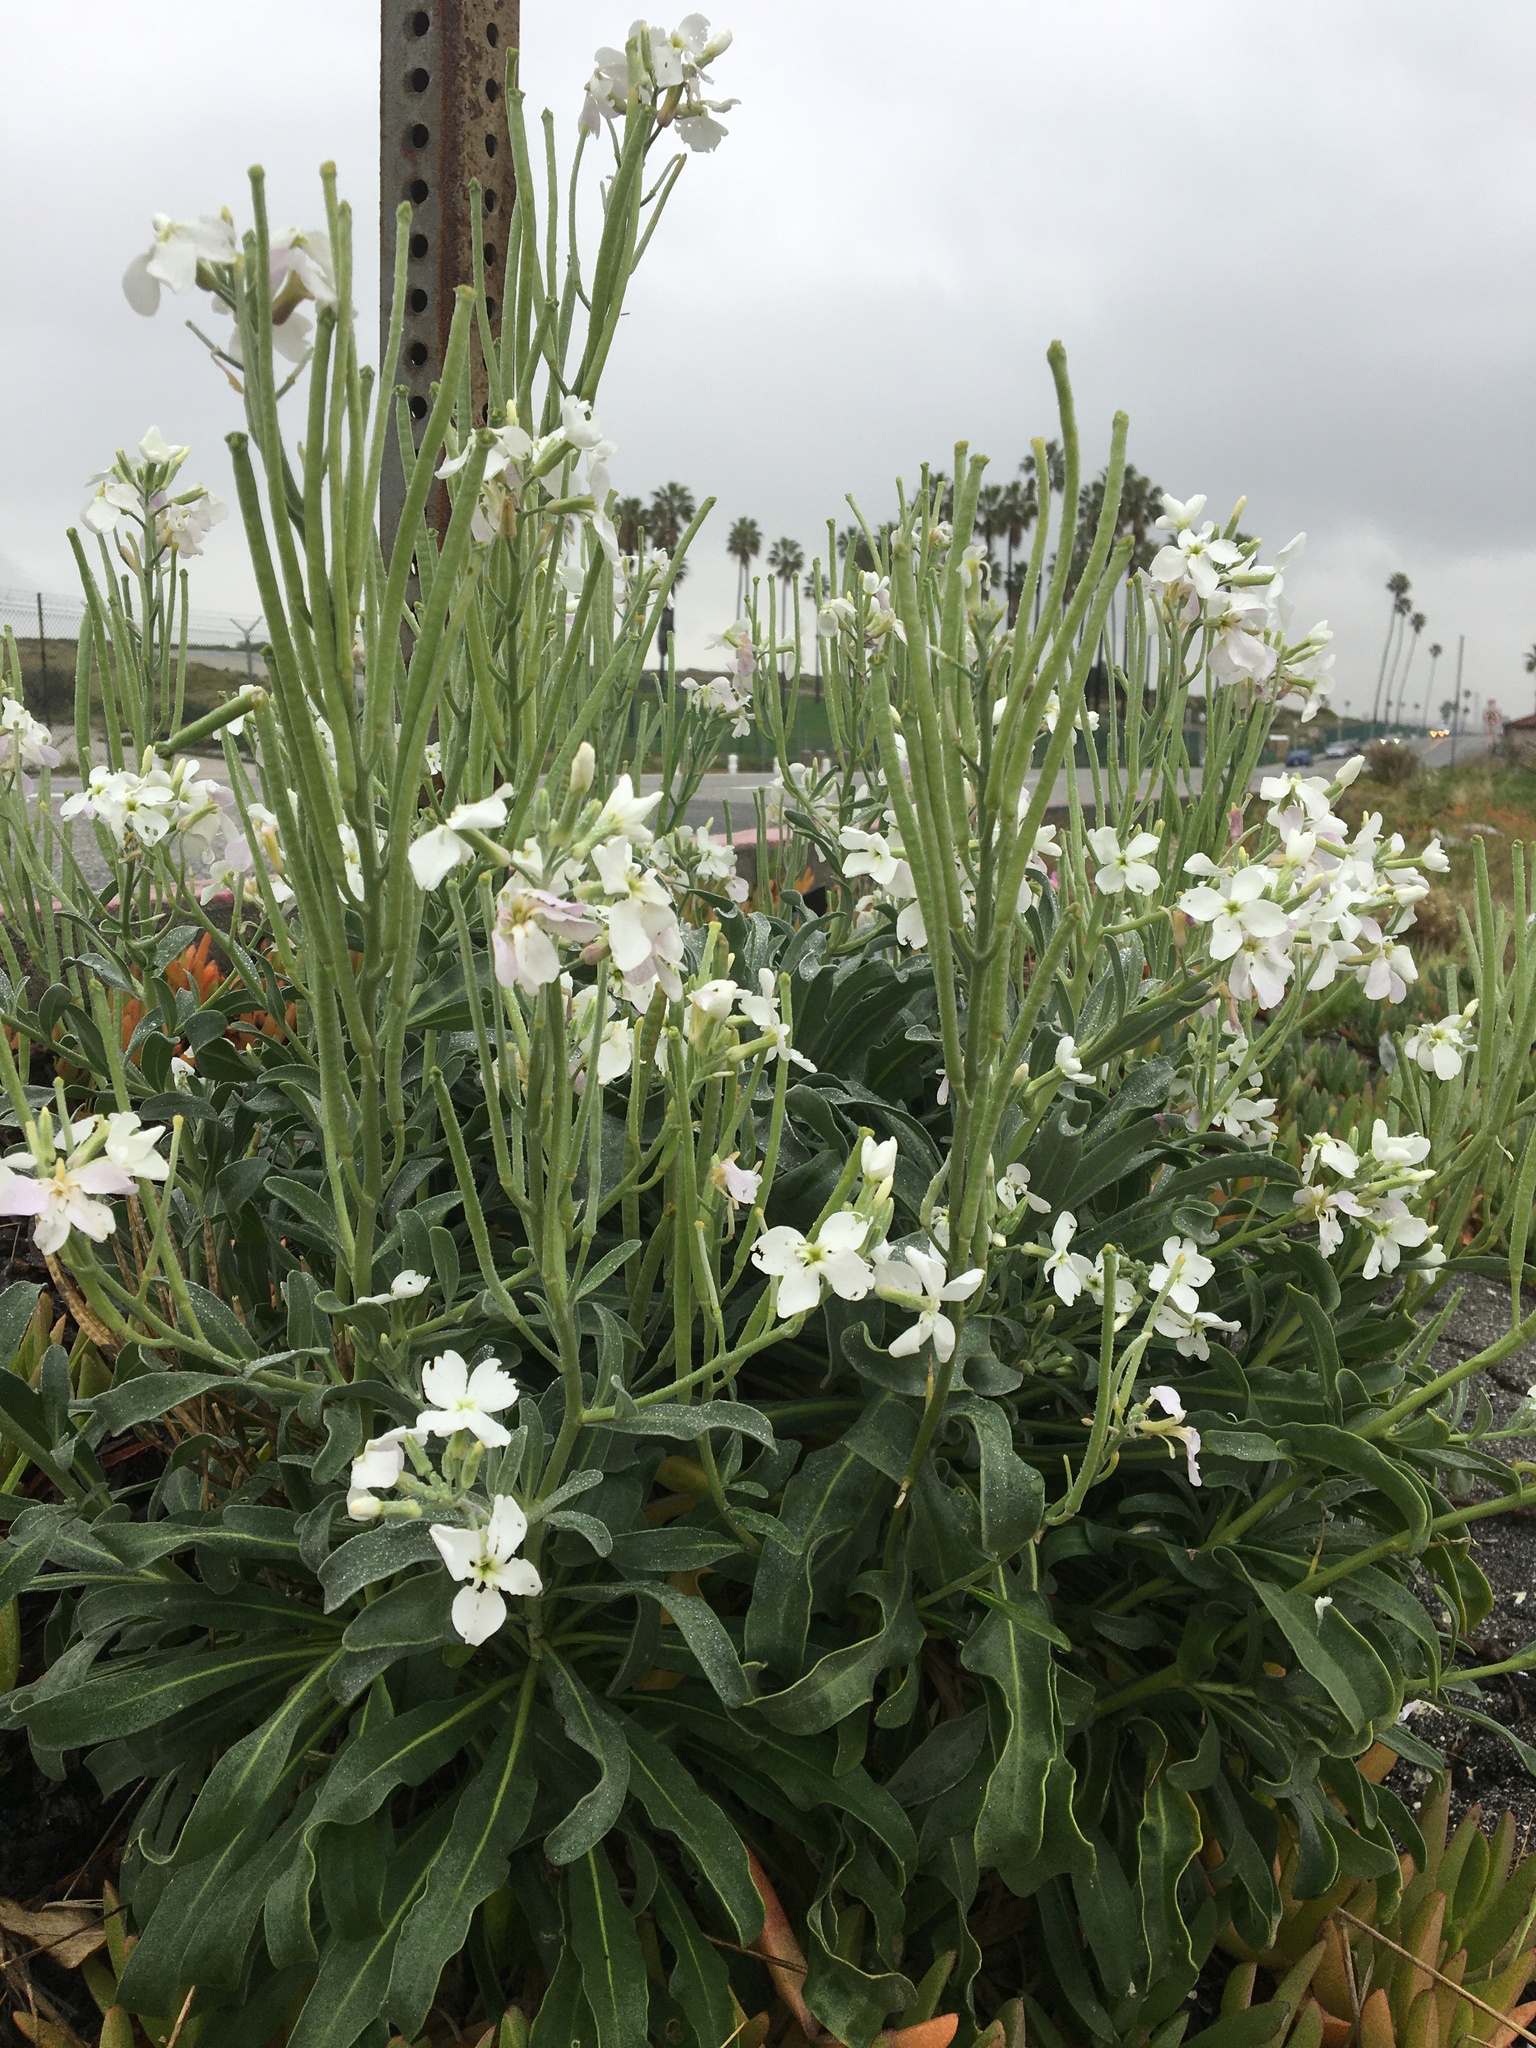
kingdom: Plantae
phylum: Tracheophyta
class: Magnoliopsida
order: Brassicales
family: Brassicaceae
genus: Matthiola
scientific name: Matthiola incana
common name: Hoary stock
